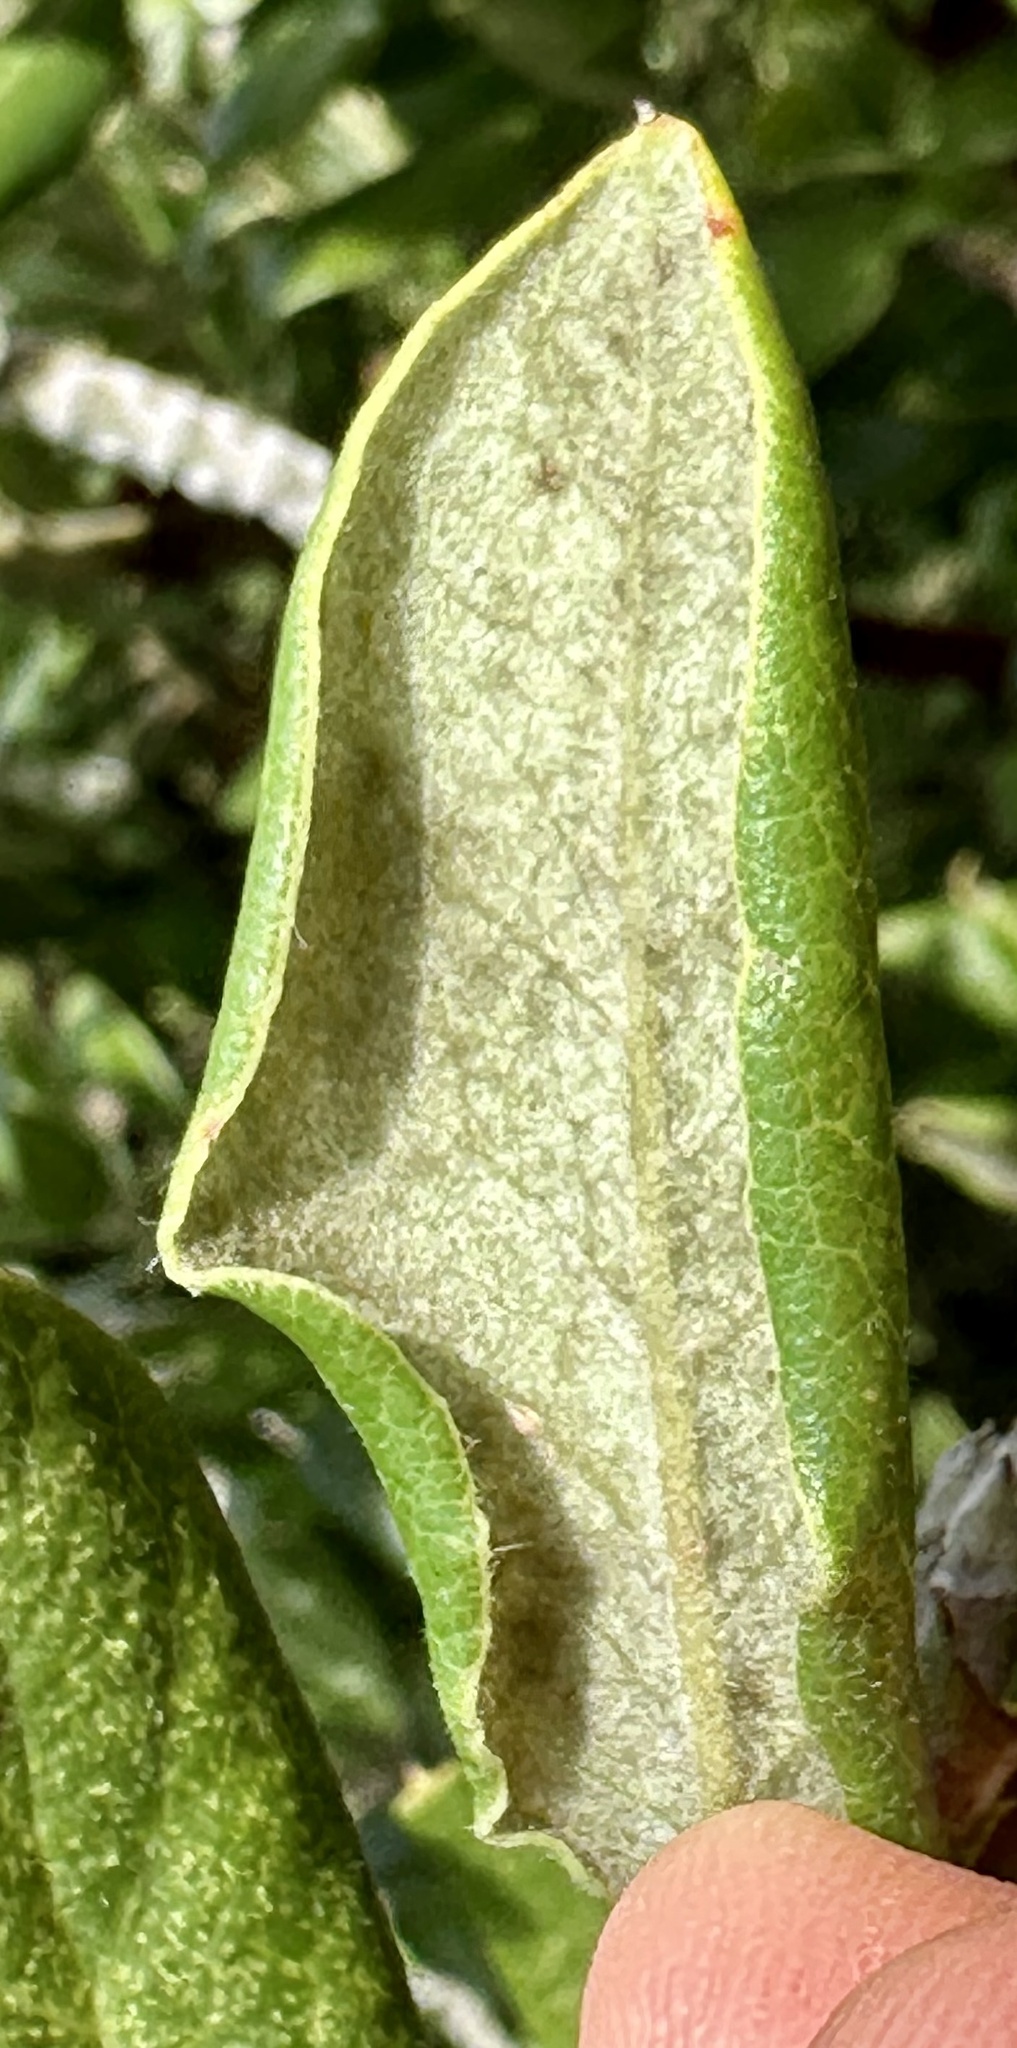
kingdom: Plantae
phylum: Tracheophyta
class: Magnoliopsida
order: Garryales
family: Garryaceae
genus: Garrya
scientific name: Garrya elliptica
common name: Silk-tassel
